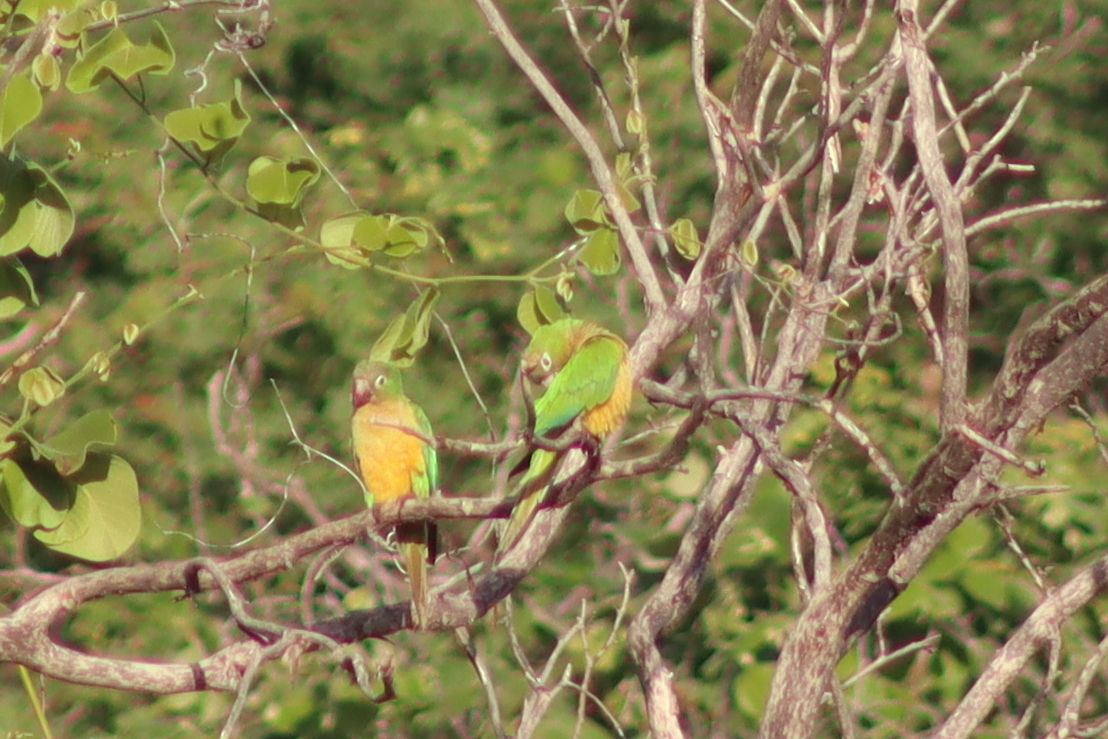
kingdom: Animalia
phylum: Chordata
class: Aves
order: Psittaciformes
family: Psittacidae
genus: Aratinga
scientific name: Aratinga cactorum
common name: Caatinga parakeet
